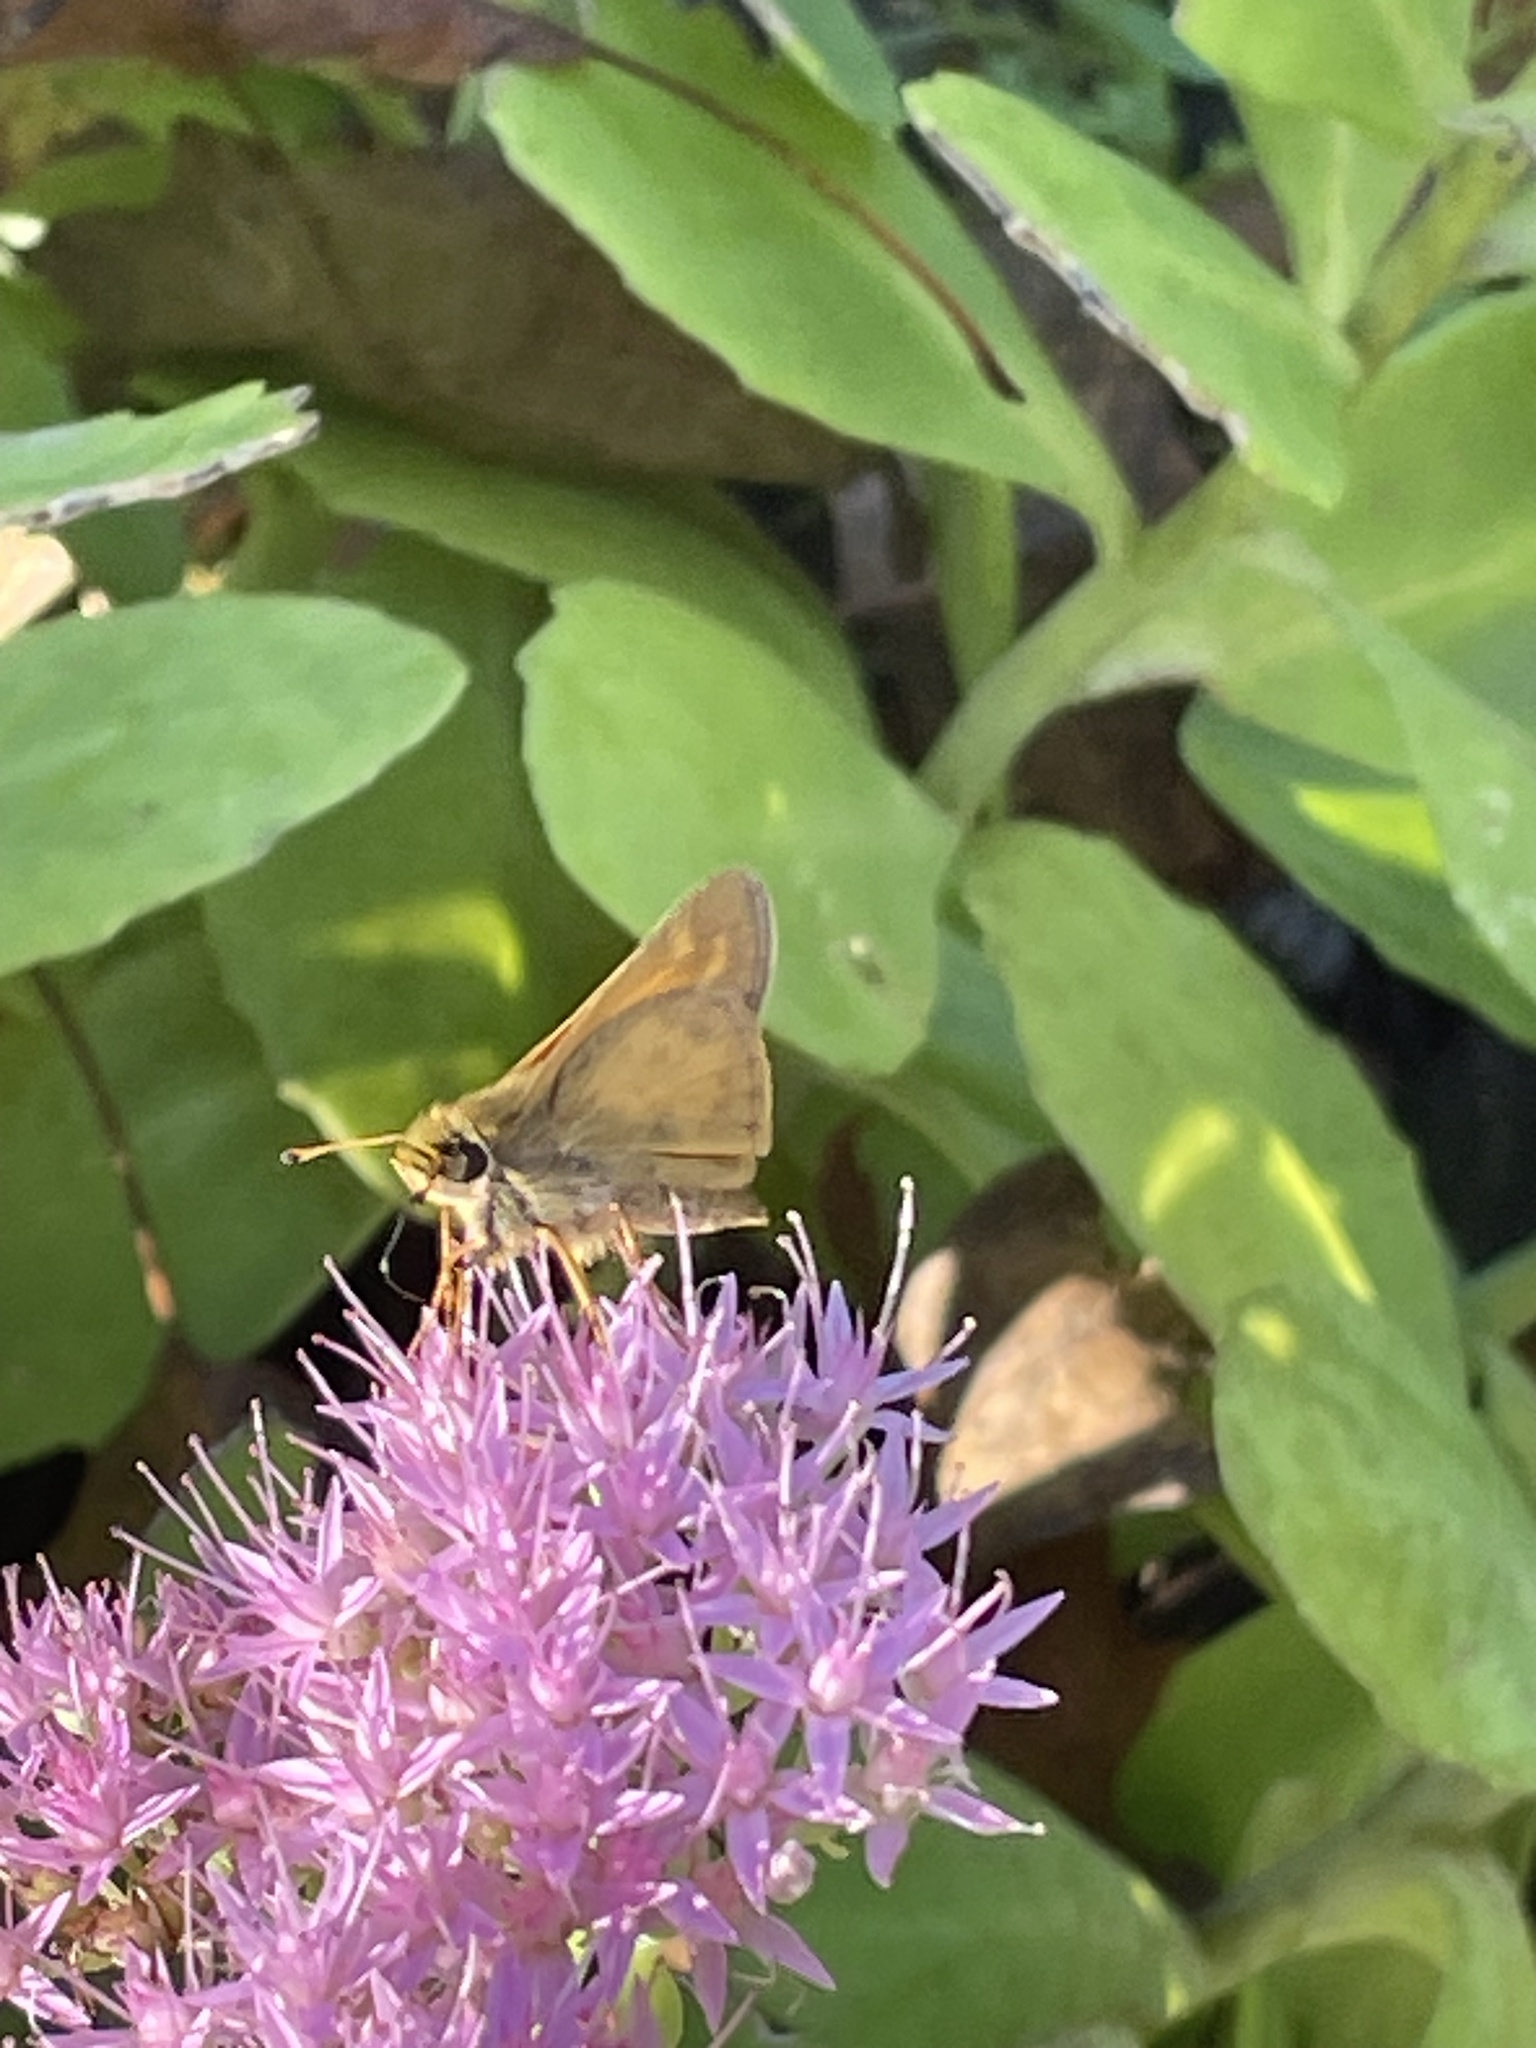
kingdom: Animalia
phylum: Arthropoda
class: Insecta
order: Lepidoptera
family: Hesperiidae
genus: Atalopedes
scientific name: Atalopedes
